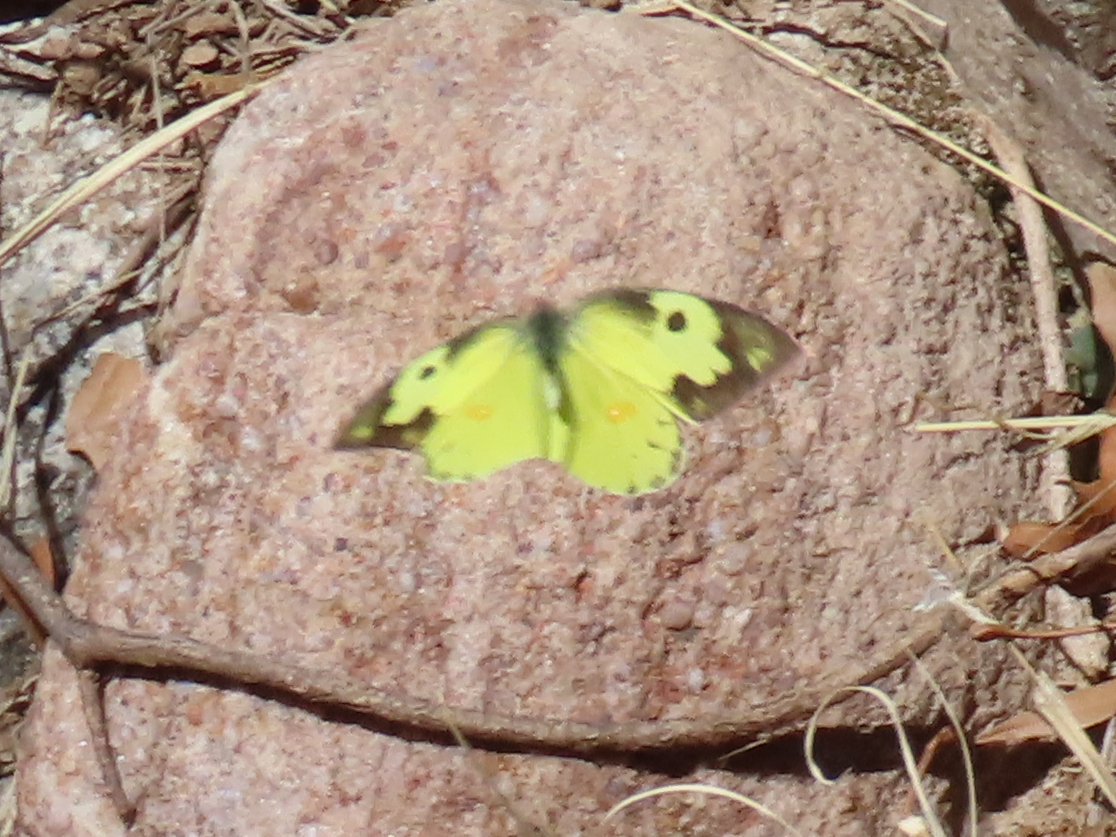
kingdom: Animalia
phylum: Arthropoda
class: Insecta
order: Lepidoptera
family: Pieridae
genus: Zerene
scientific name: Zerene cesonia
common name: Southern dogface
